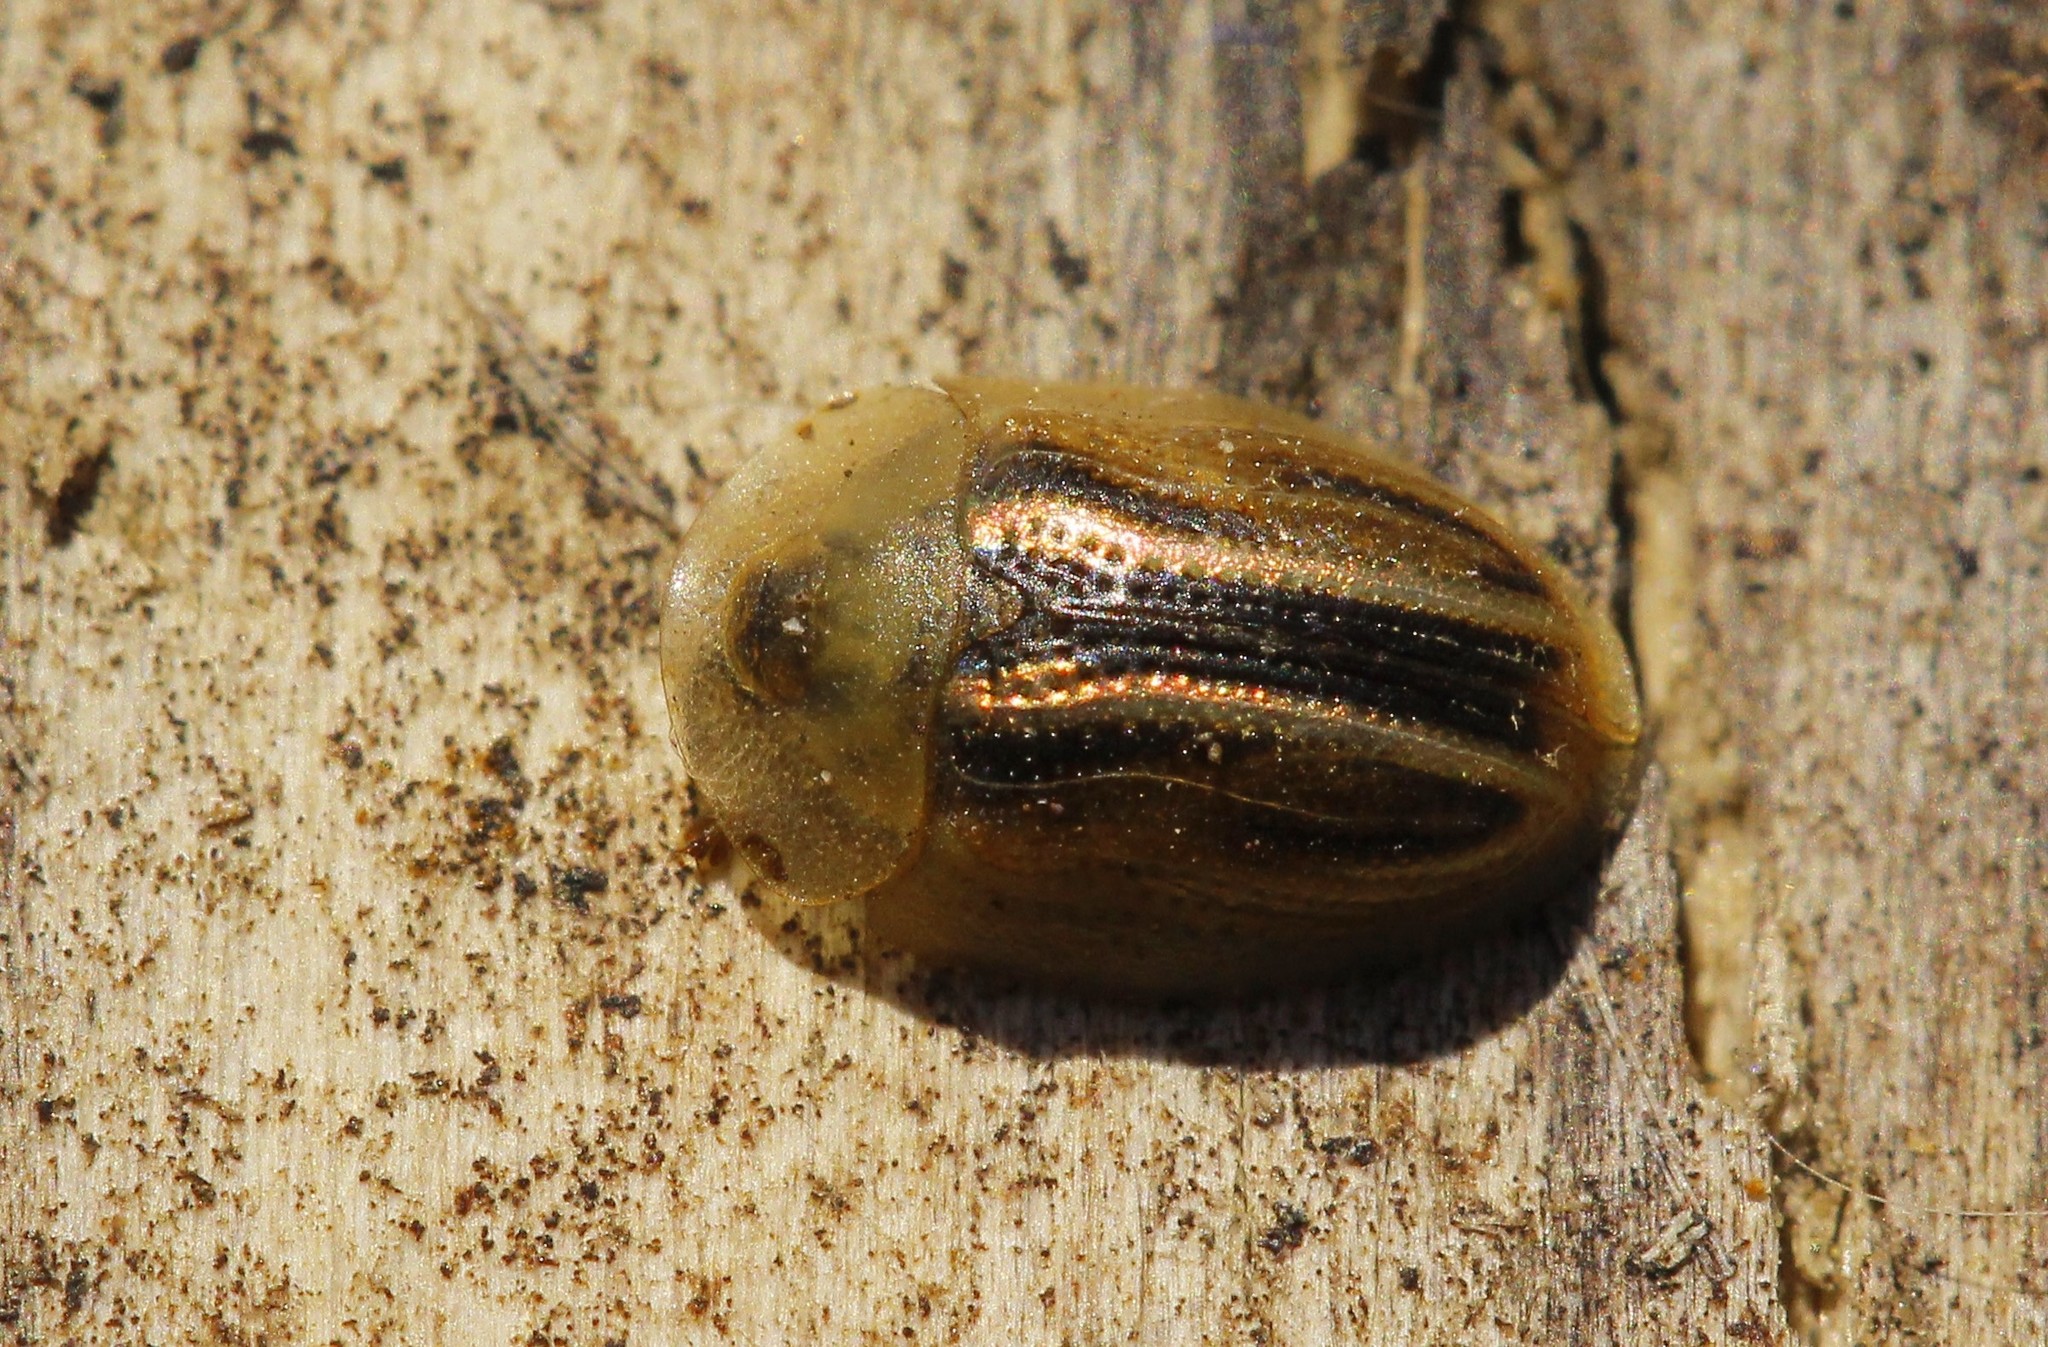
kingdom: Animalia
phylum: Arthropoda
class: Insecta
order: Coleoptera
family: Chrysomelidae
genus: Cassida
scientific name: Cassida nobilis
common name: Leaf beetle
